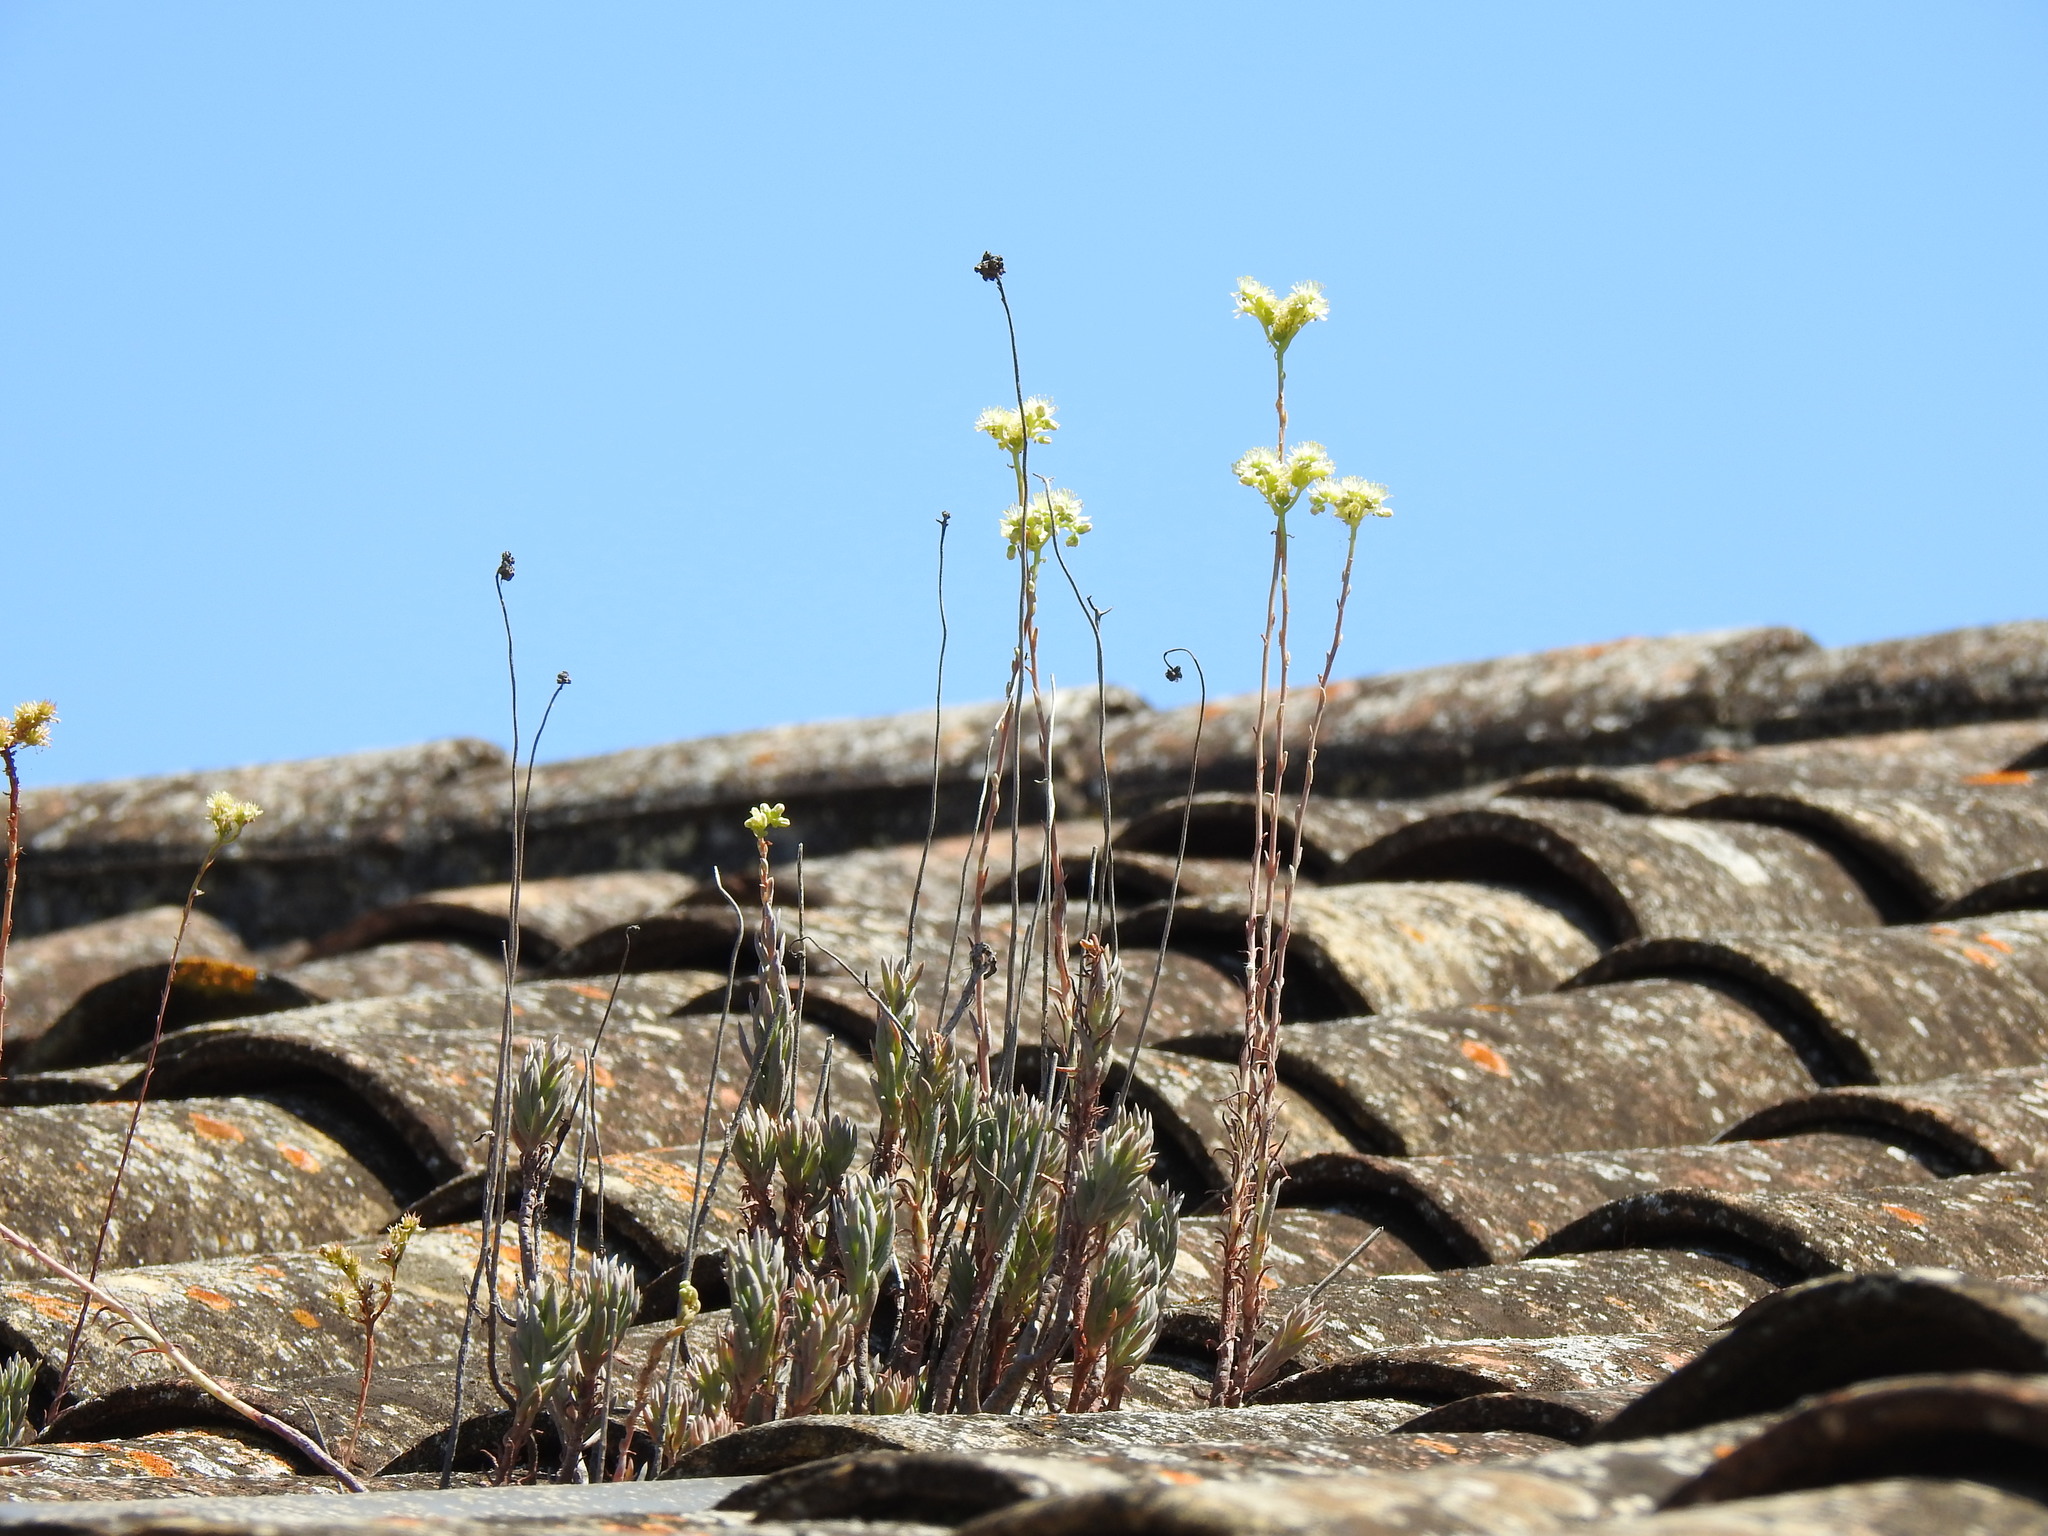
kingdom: Plantae
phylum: Tracheophyta
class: Magnoliopsida
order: Saxifragales
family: Crassulaceae
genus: Petrosedum
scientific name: Petrosedum sediforme
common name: Pale stonecrop
